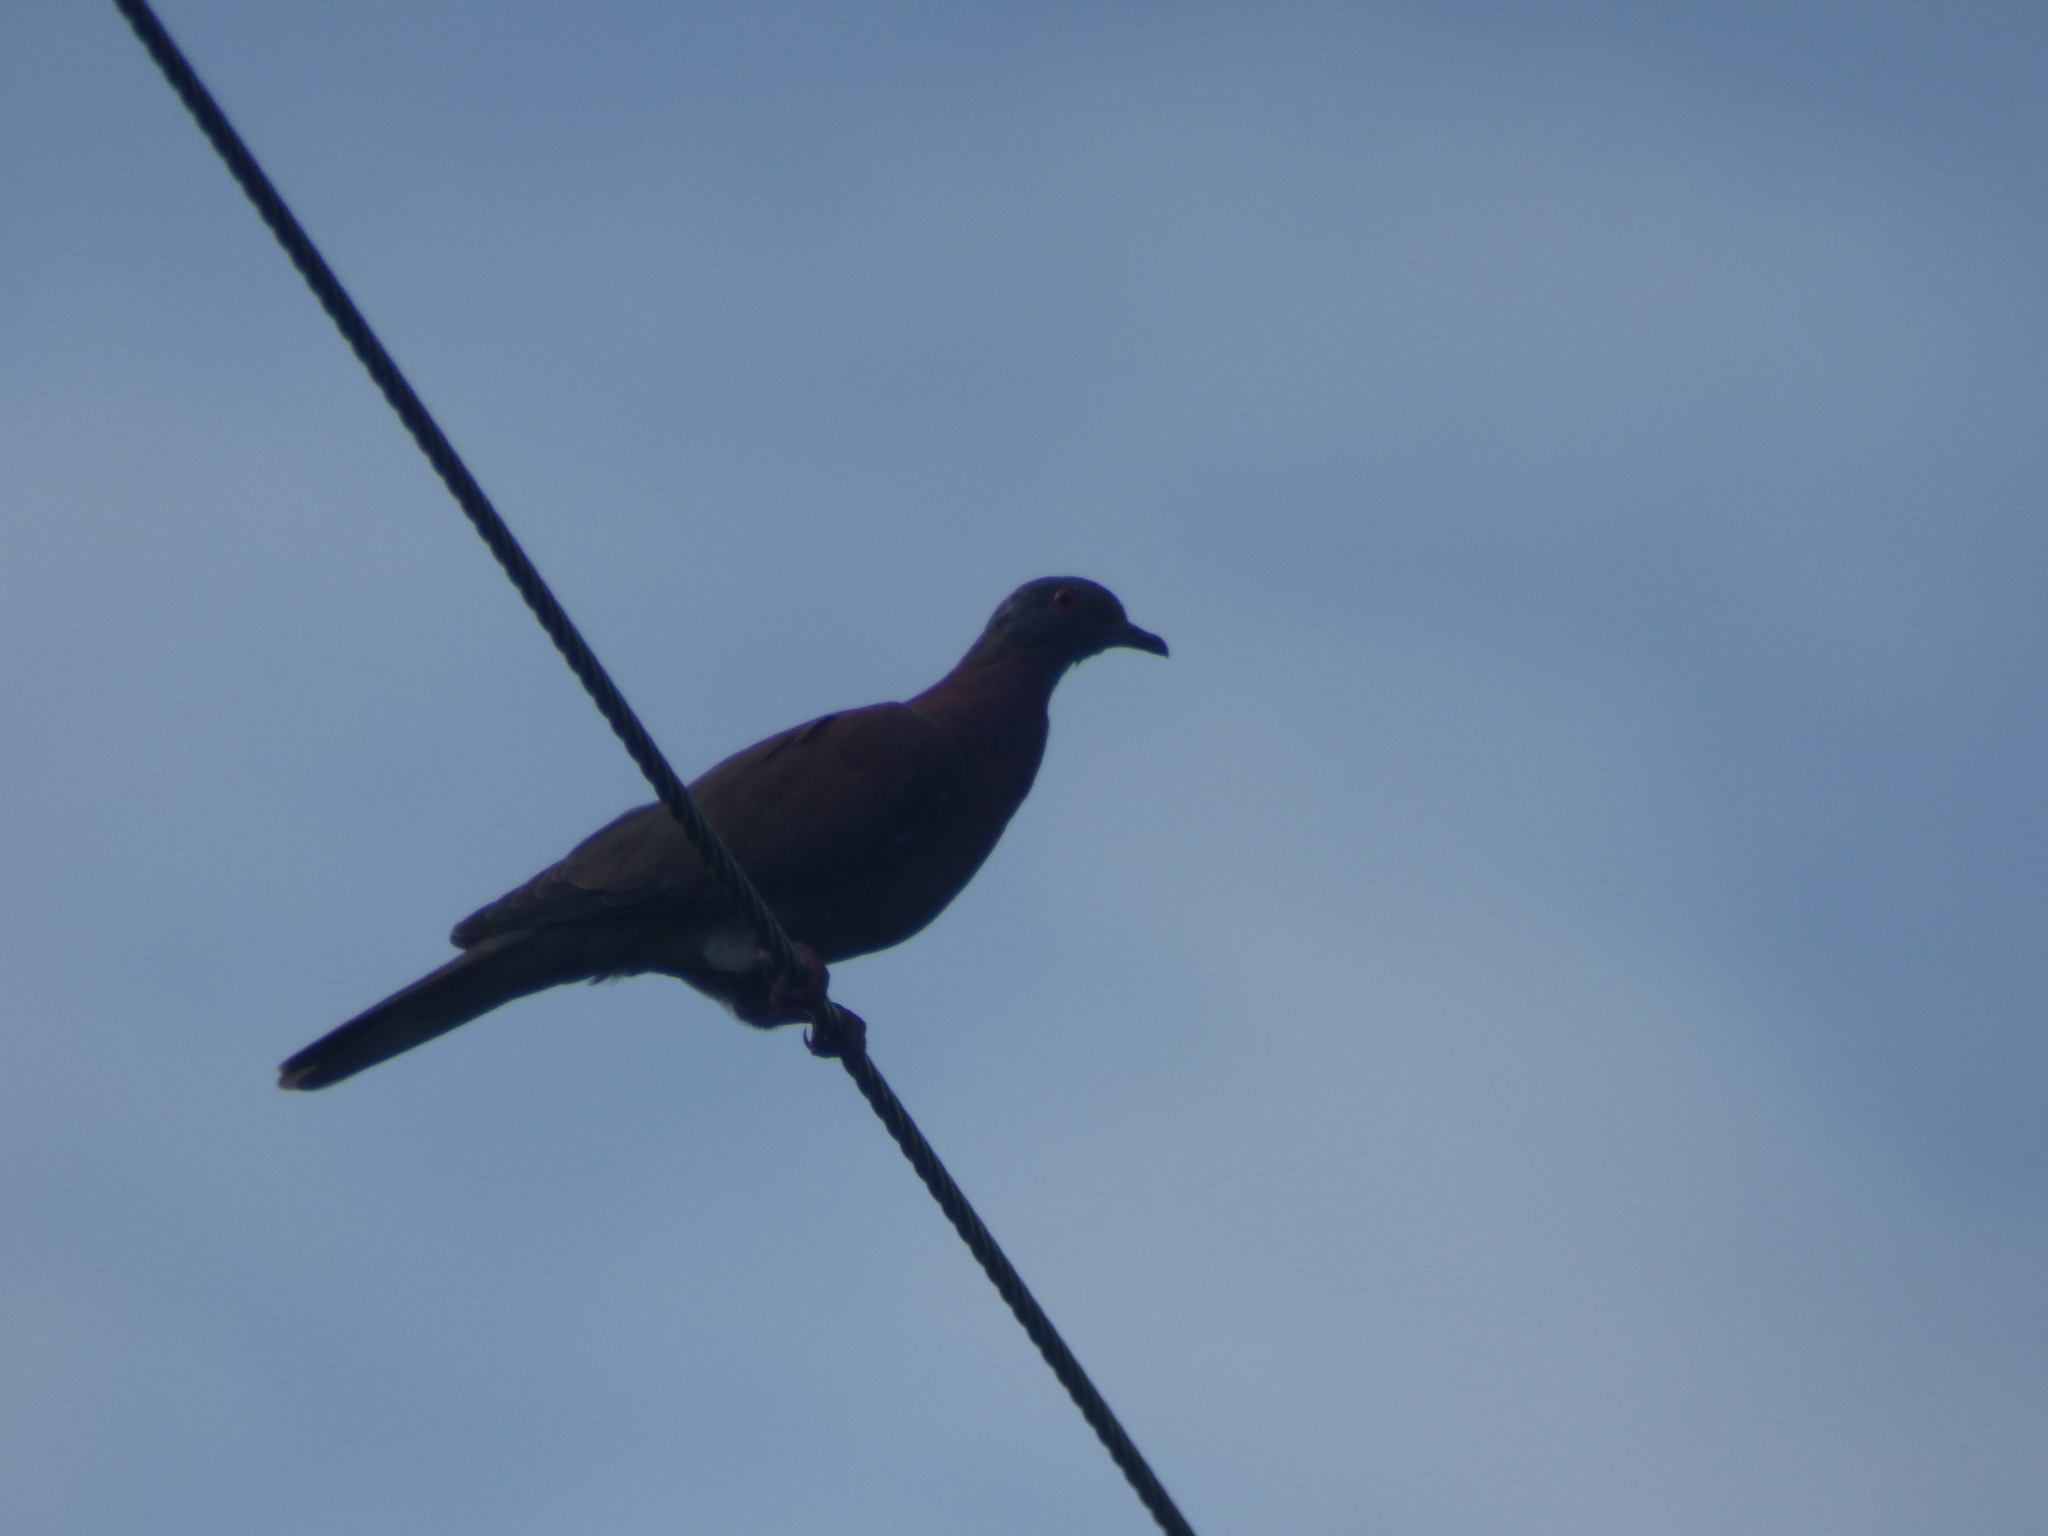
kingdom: Animalia
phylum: Chordata
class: Aves
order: Columbiformes
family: Columbidae
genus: Patagioenas
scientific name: Patagioenas cayennensis
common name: Pale-vented pigeon
